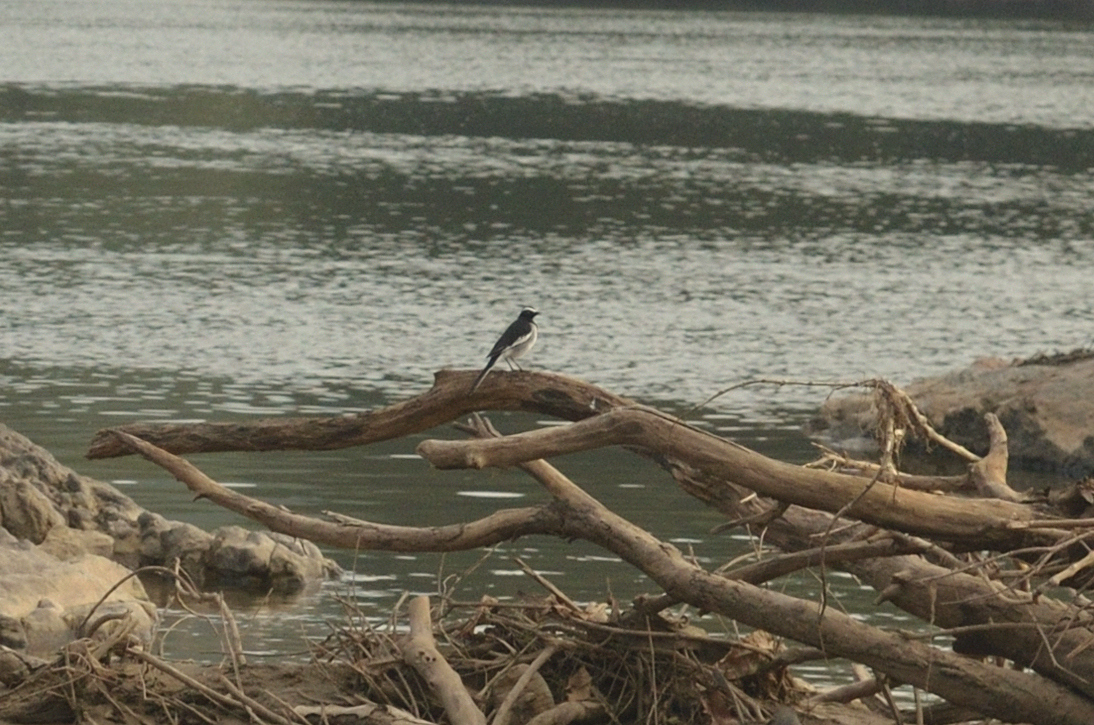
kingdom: Animalia
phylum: Chordata
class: Aves
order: Passeriformes
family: Motacillidae
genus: Motacilla
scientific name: Motacilla maderaspatensis
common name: White-browed wagtail
